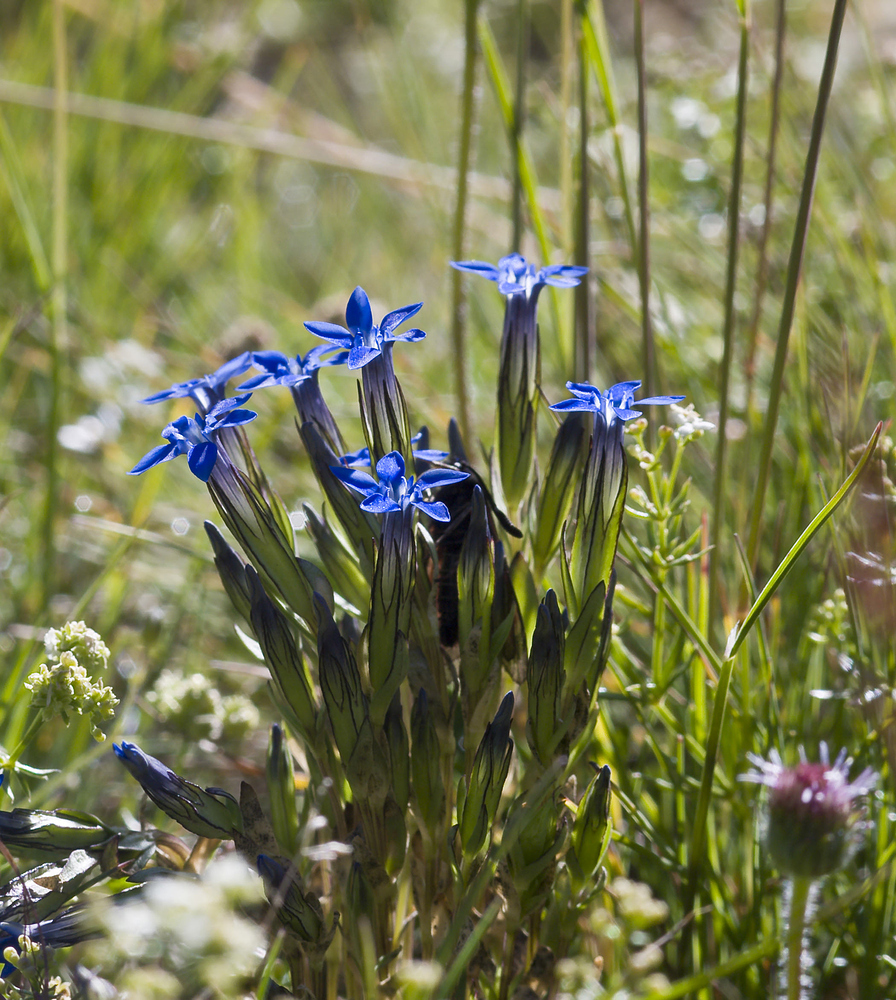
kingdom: Plantae
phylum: Tracheophyta
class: Magnoliopsida
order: Gentianales
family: Gentianaceae
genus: Gentiana
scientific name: Gentiana nivalis
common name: Alpine gentian
